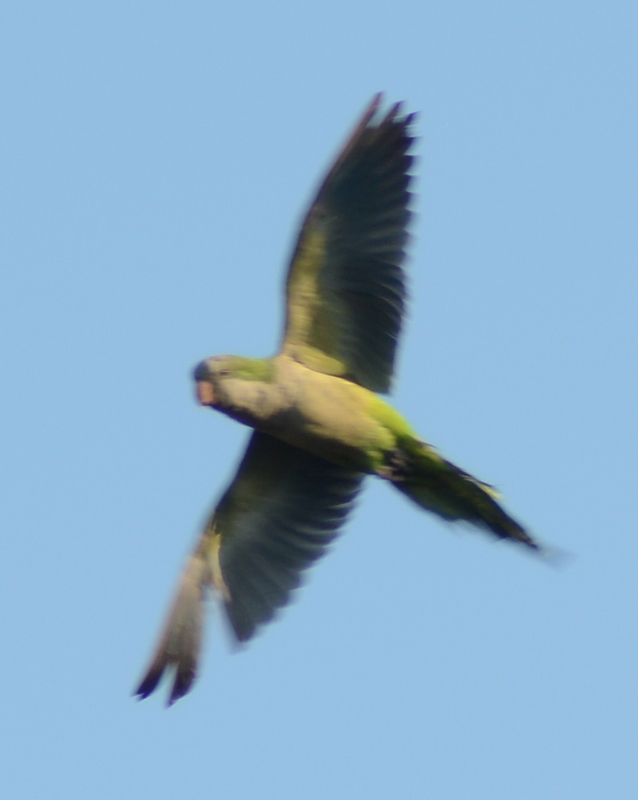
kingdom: Animalia
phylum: Chordata
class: Aves
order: Psittaciformes
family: Psittacidae
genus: Myiopsitta
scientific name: Myiopsitta monachus
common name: Monk parakeet
